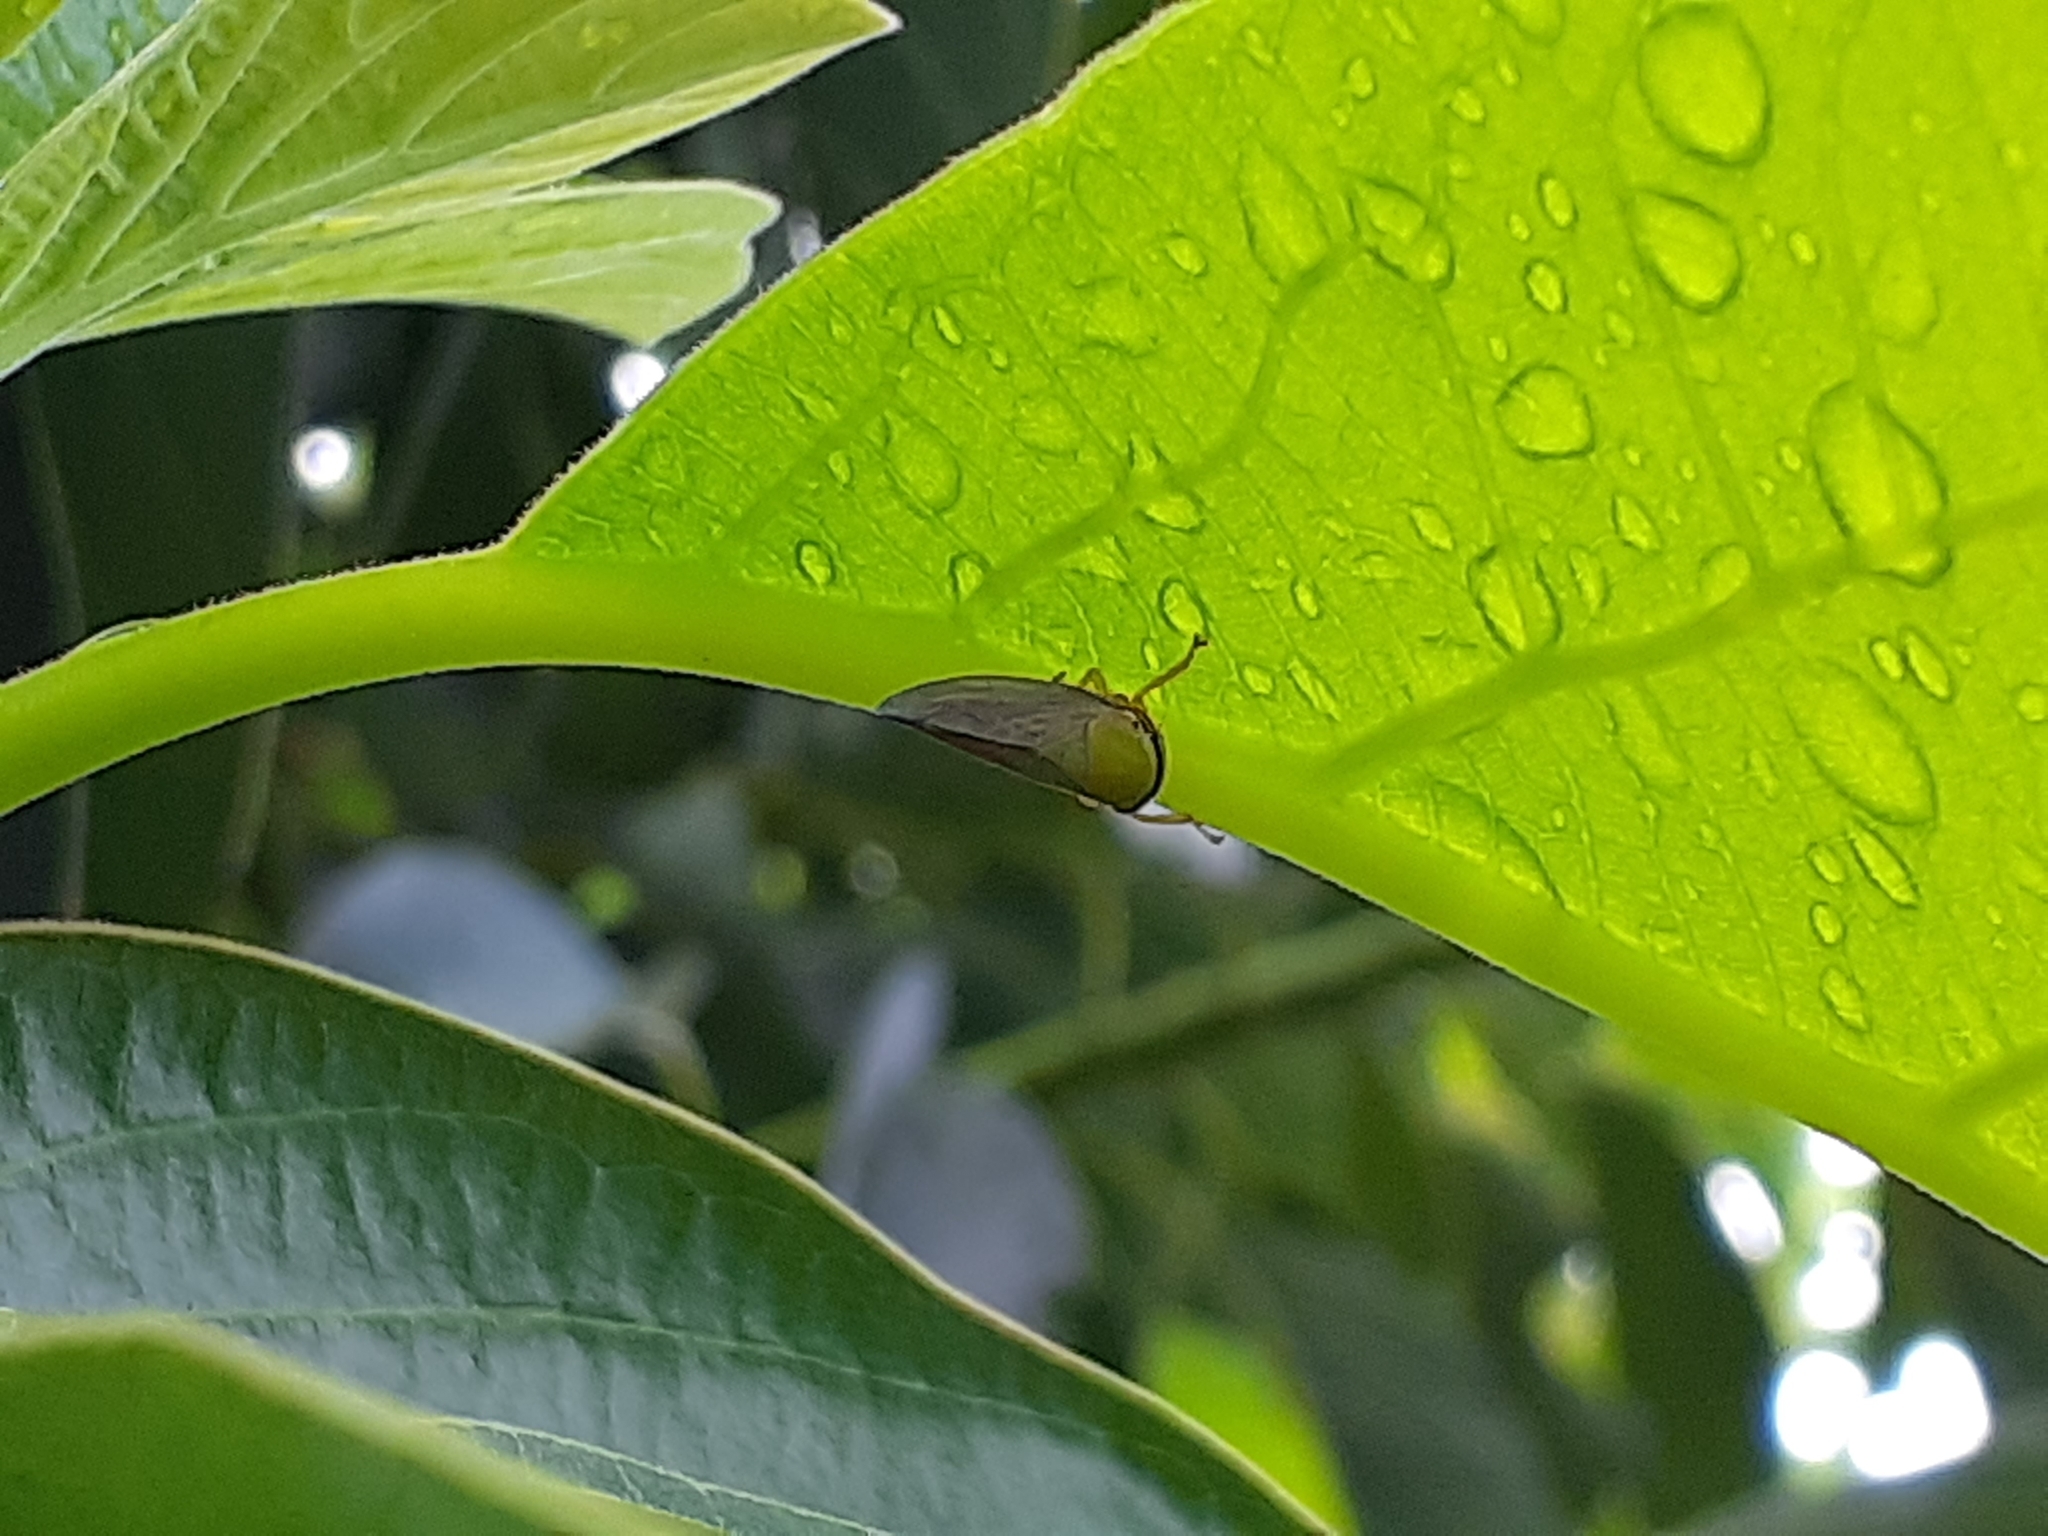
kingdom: Animalia
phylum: Arthropoda
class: Insecta
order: Hemiptera
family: Cicadellidae
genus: Tartessus
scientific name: Tartessus ferrugineus
